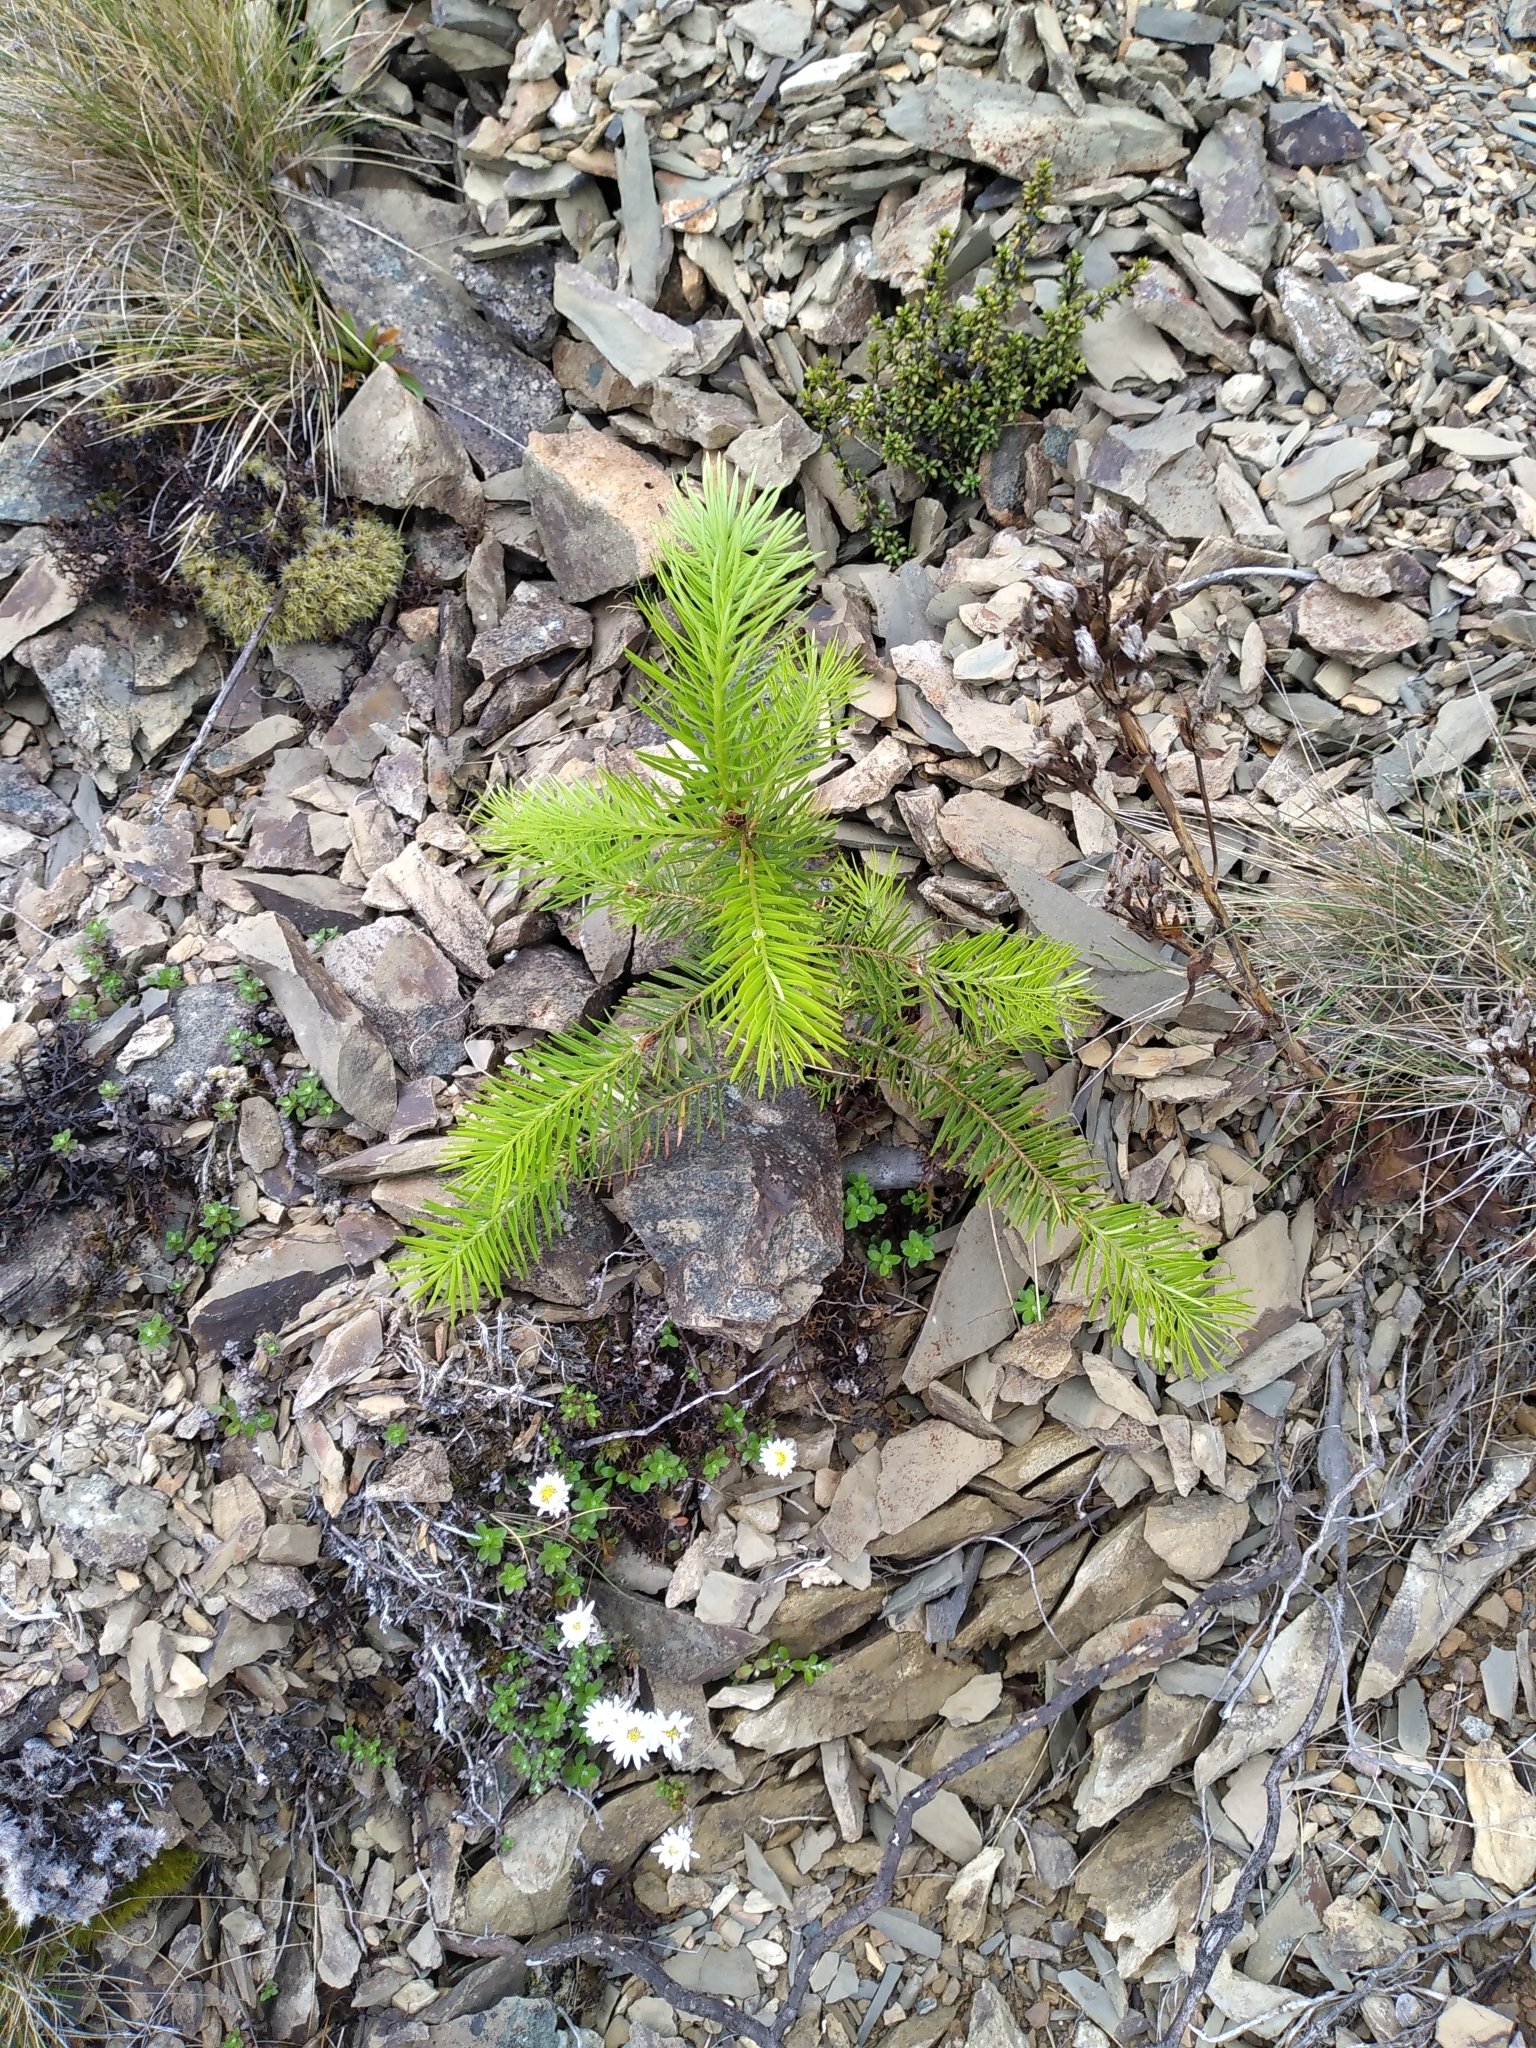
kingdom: Plantae
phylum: Tracheophyta
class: Pinopsida
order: Pinales
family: Pinaceae
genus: Pseudotsuga
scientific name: Pseudotsuga menziesii
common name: Douglas fir
